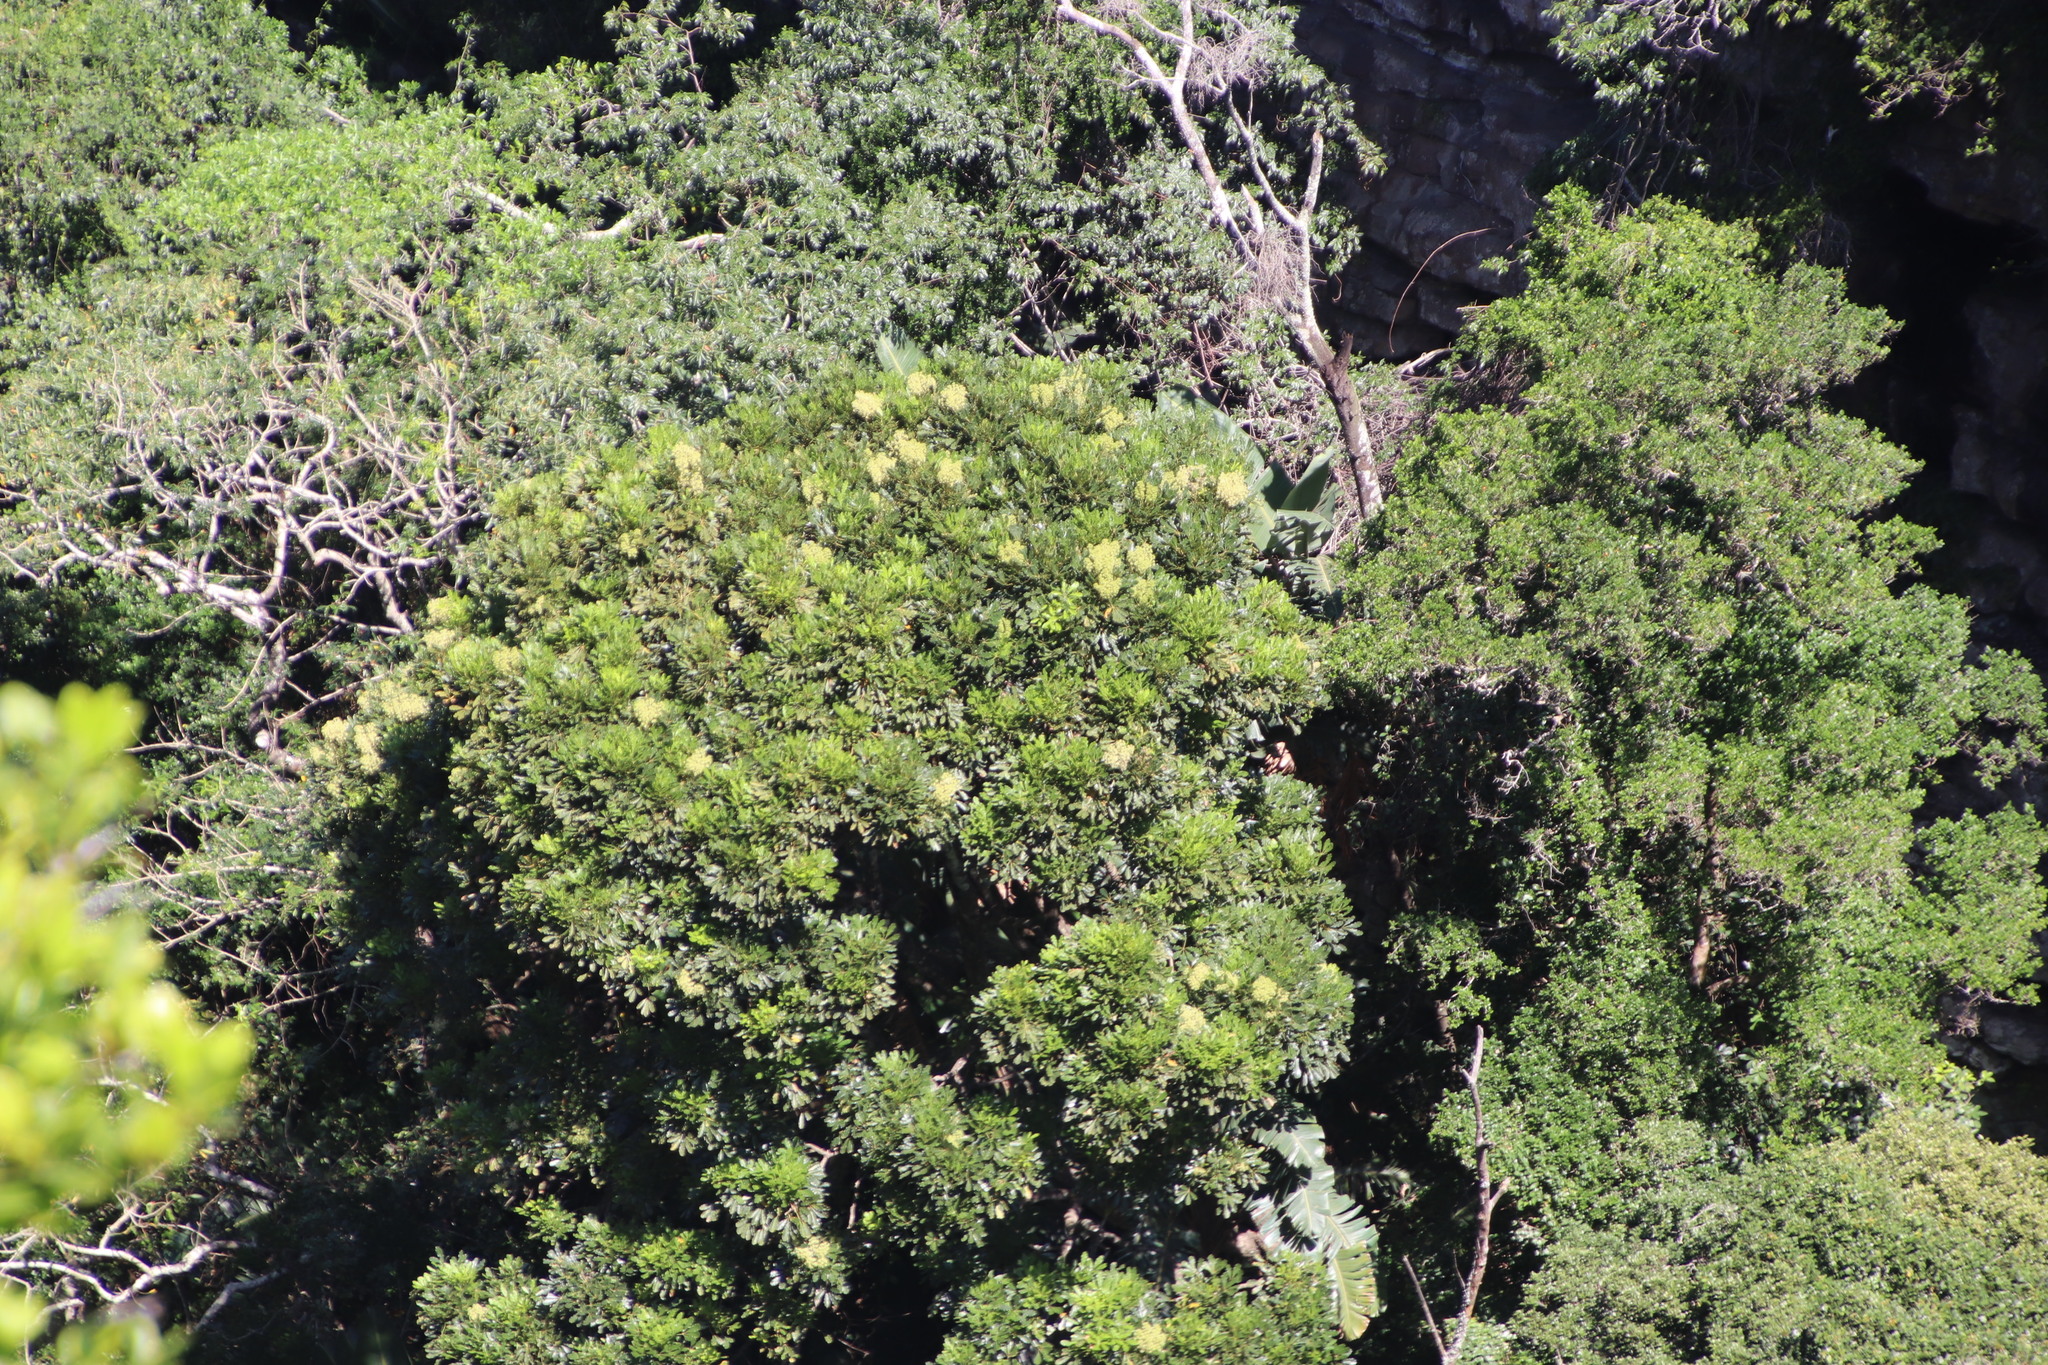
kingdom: Plantae
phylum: Tracheophyta
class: Magnoliopsida
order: Apiales
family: Araliaceae
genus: Neocussonia
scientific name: Neocussonia umbellifera
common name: False cabbage tree
